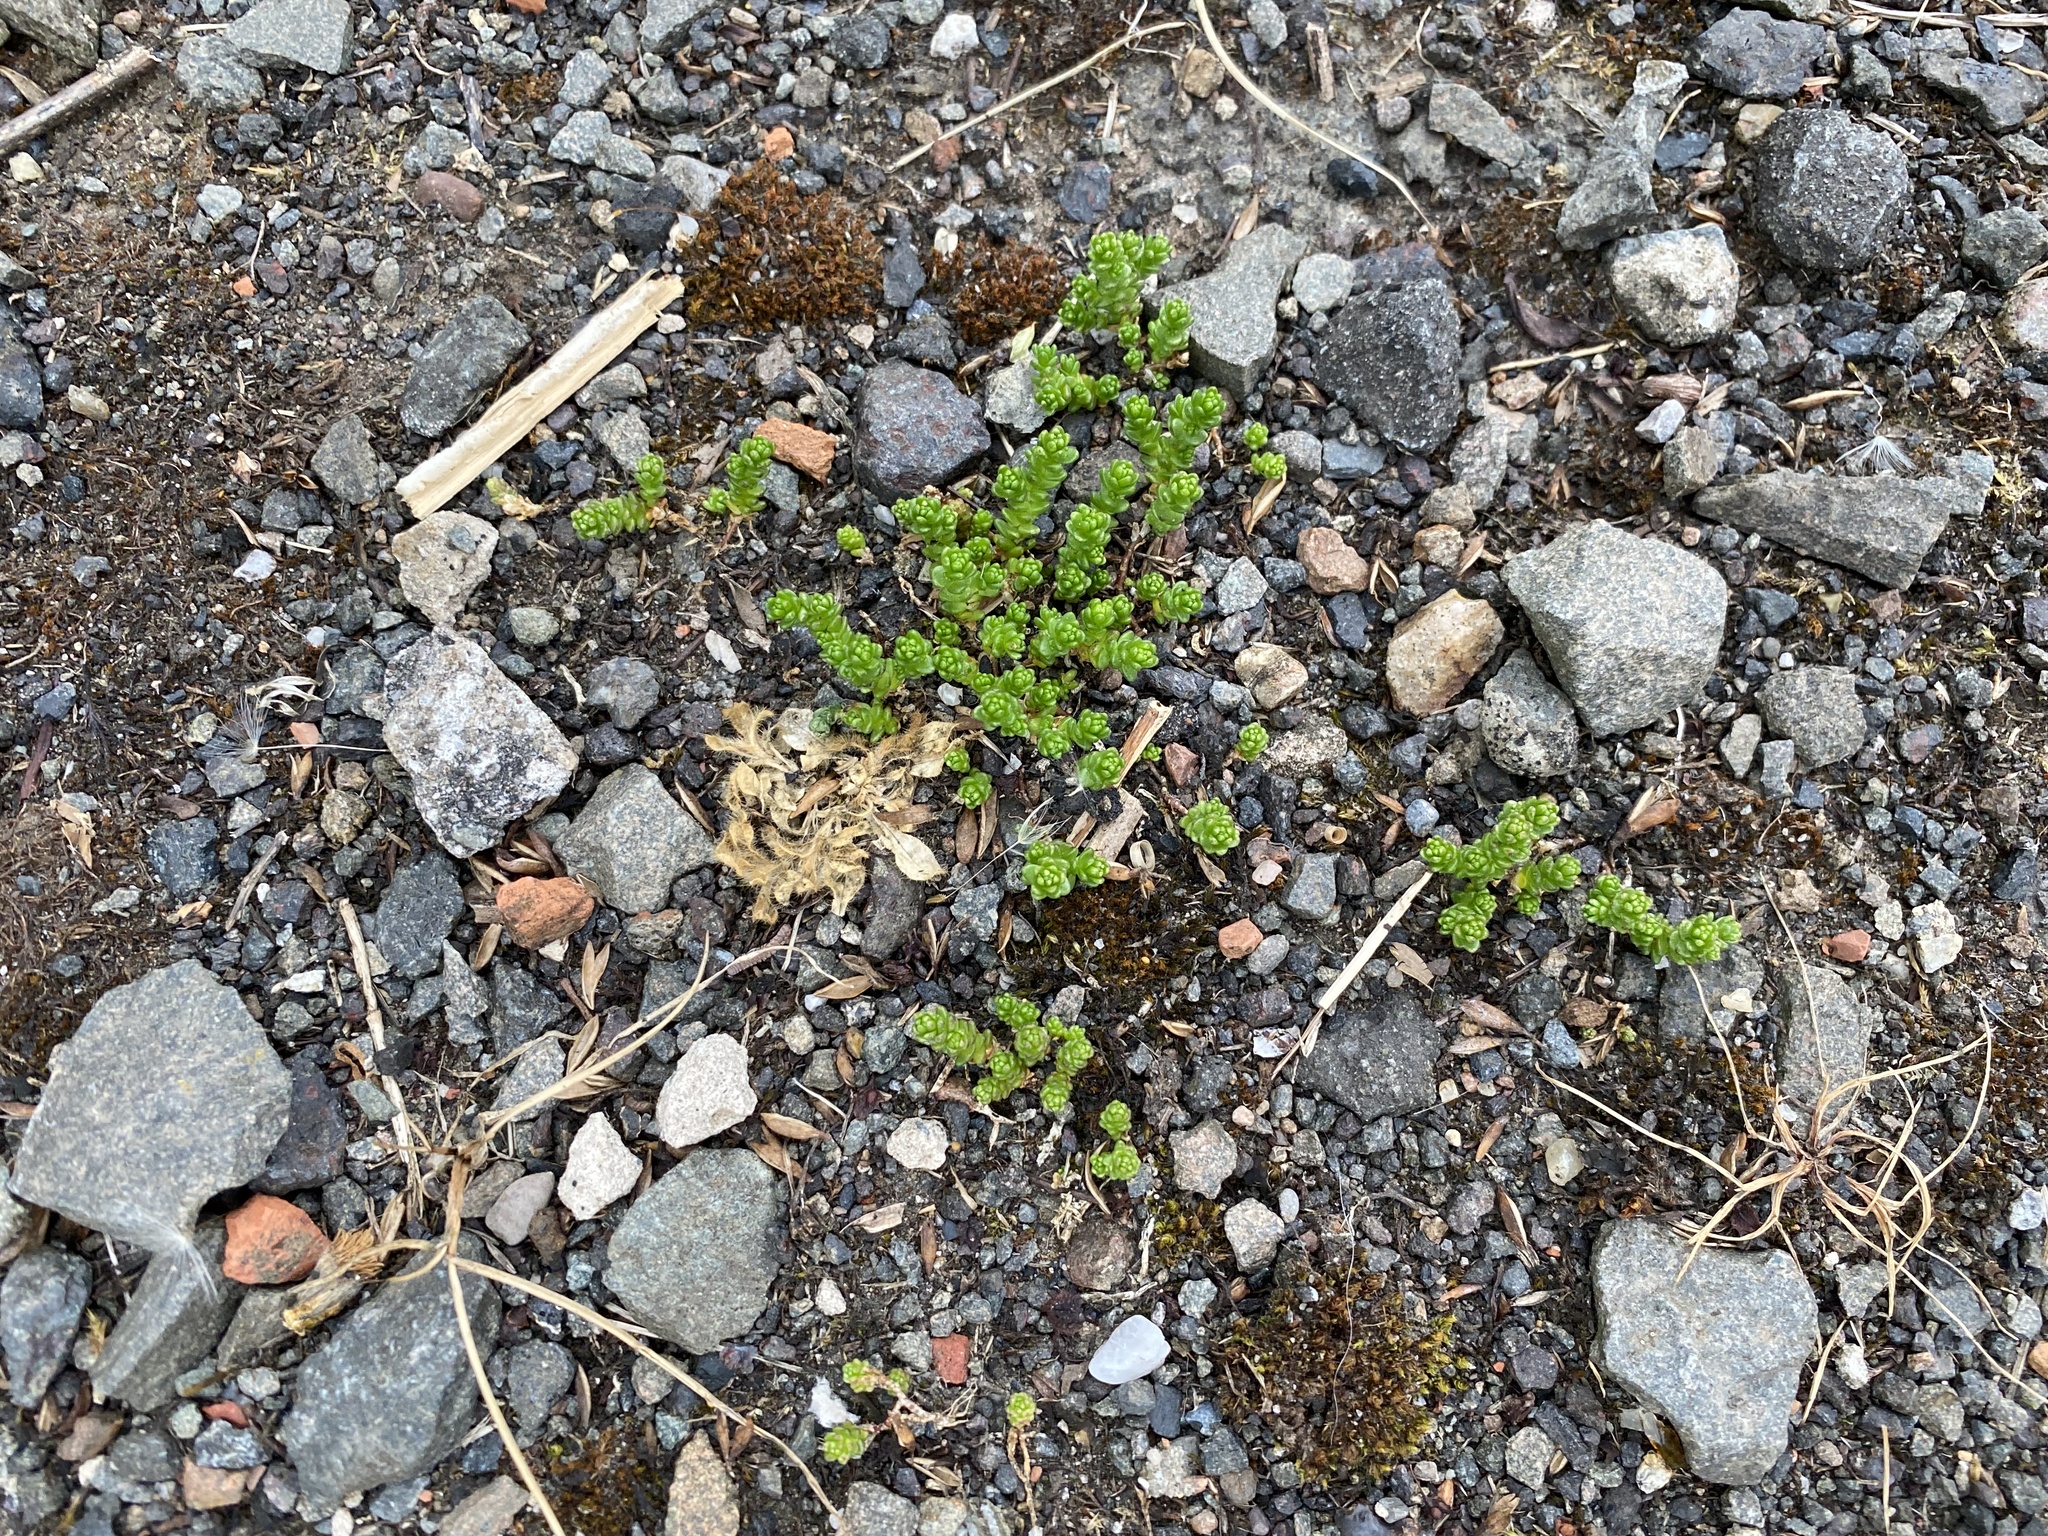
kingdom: Plantae
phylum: Tracheophyta
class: Magnoliopsida
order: Saxifragales
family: Crassulaceae
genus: Sedum
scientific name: Sedum acre
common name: Biting stonecrop
